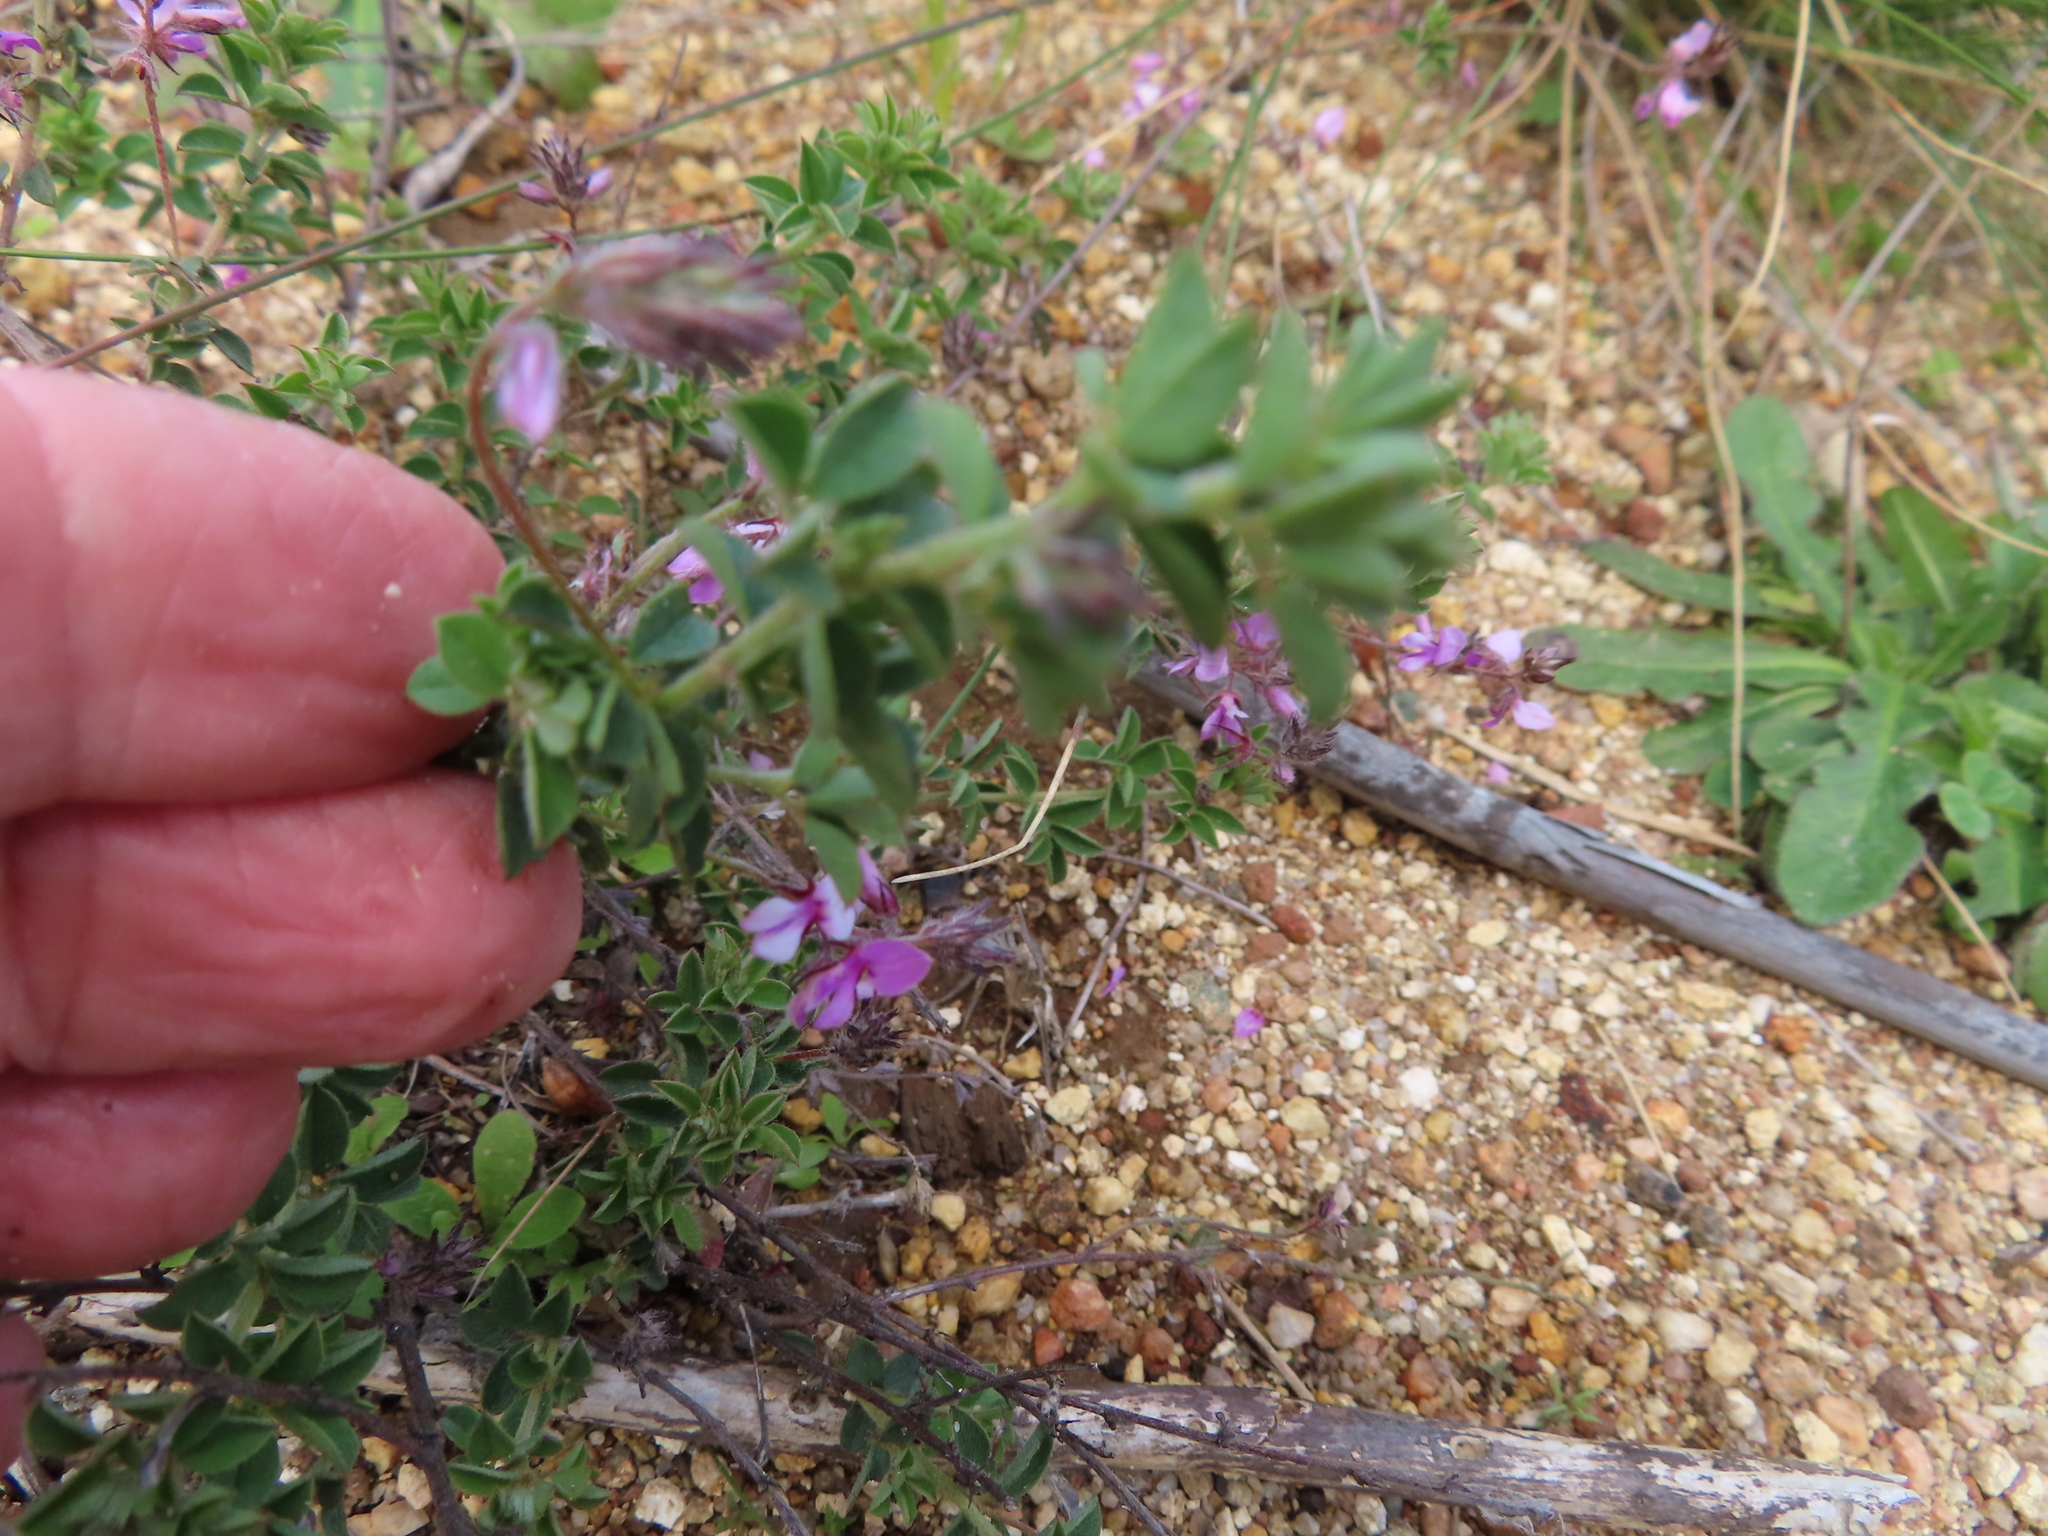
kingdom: Plantae
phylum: Tracheophyta
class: Magnoliopsida
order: Fabales
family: Fabaceae
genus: Indigofera
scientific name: Indigofera alopecuroides
